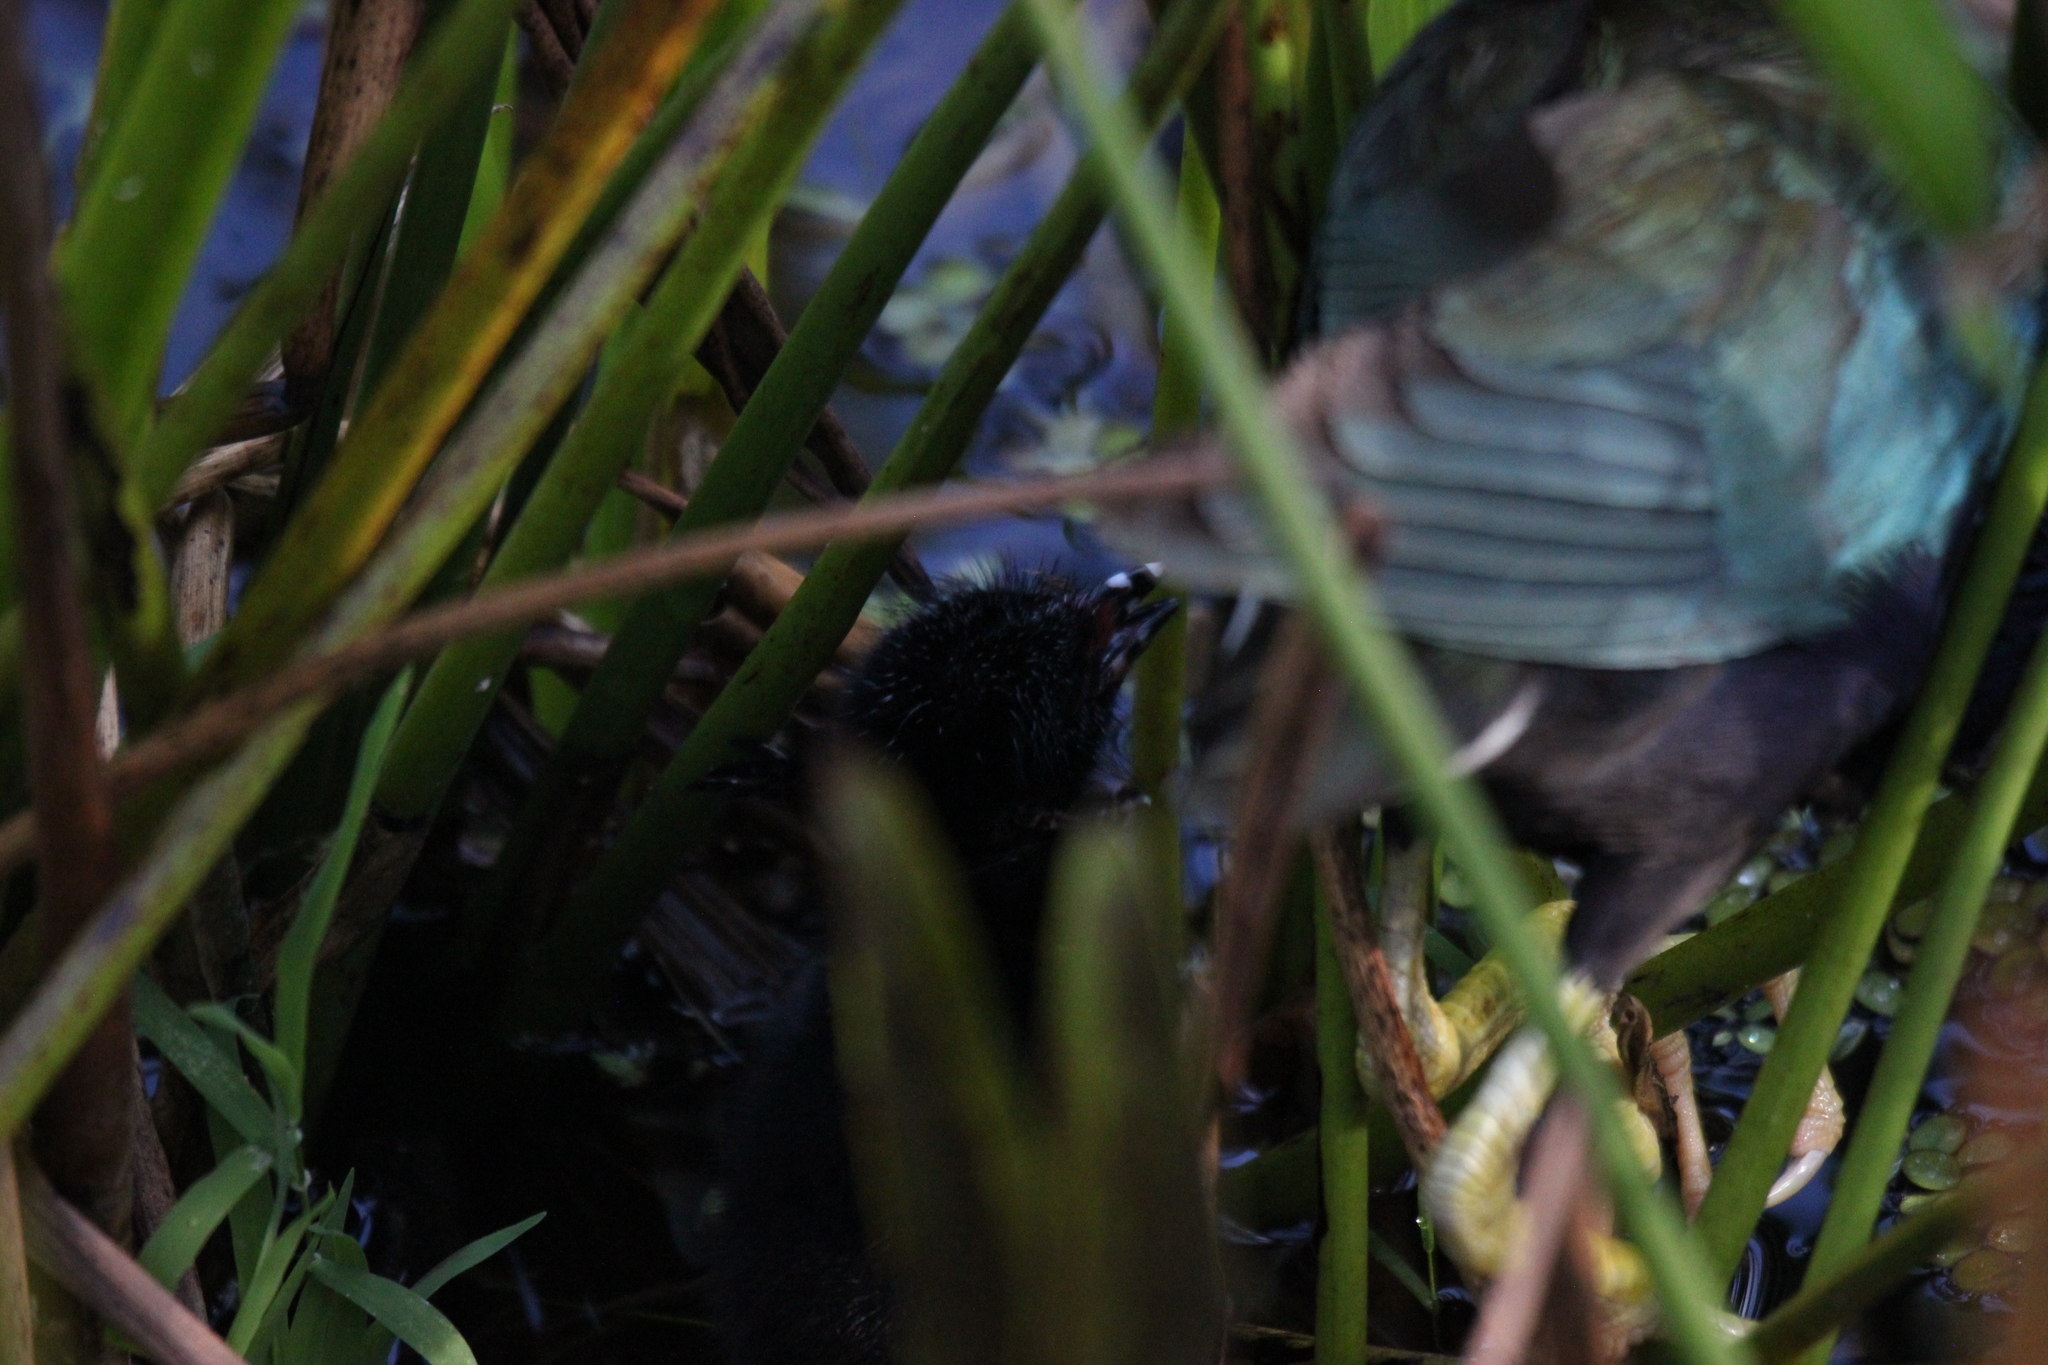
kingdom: Animalia
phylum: Chordata
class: Aves
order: Gruiformes
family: Rallidae
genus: Porphyrio
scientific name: Porphyrio martinica
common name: Purple gallinule
